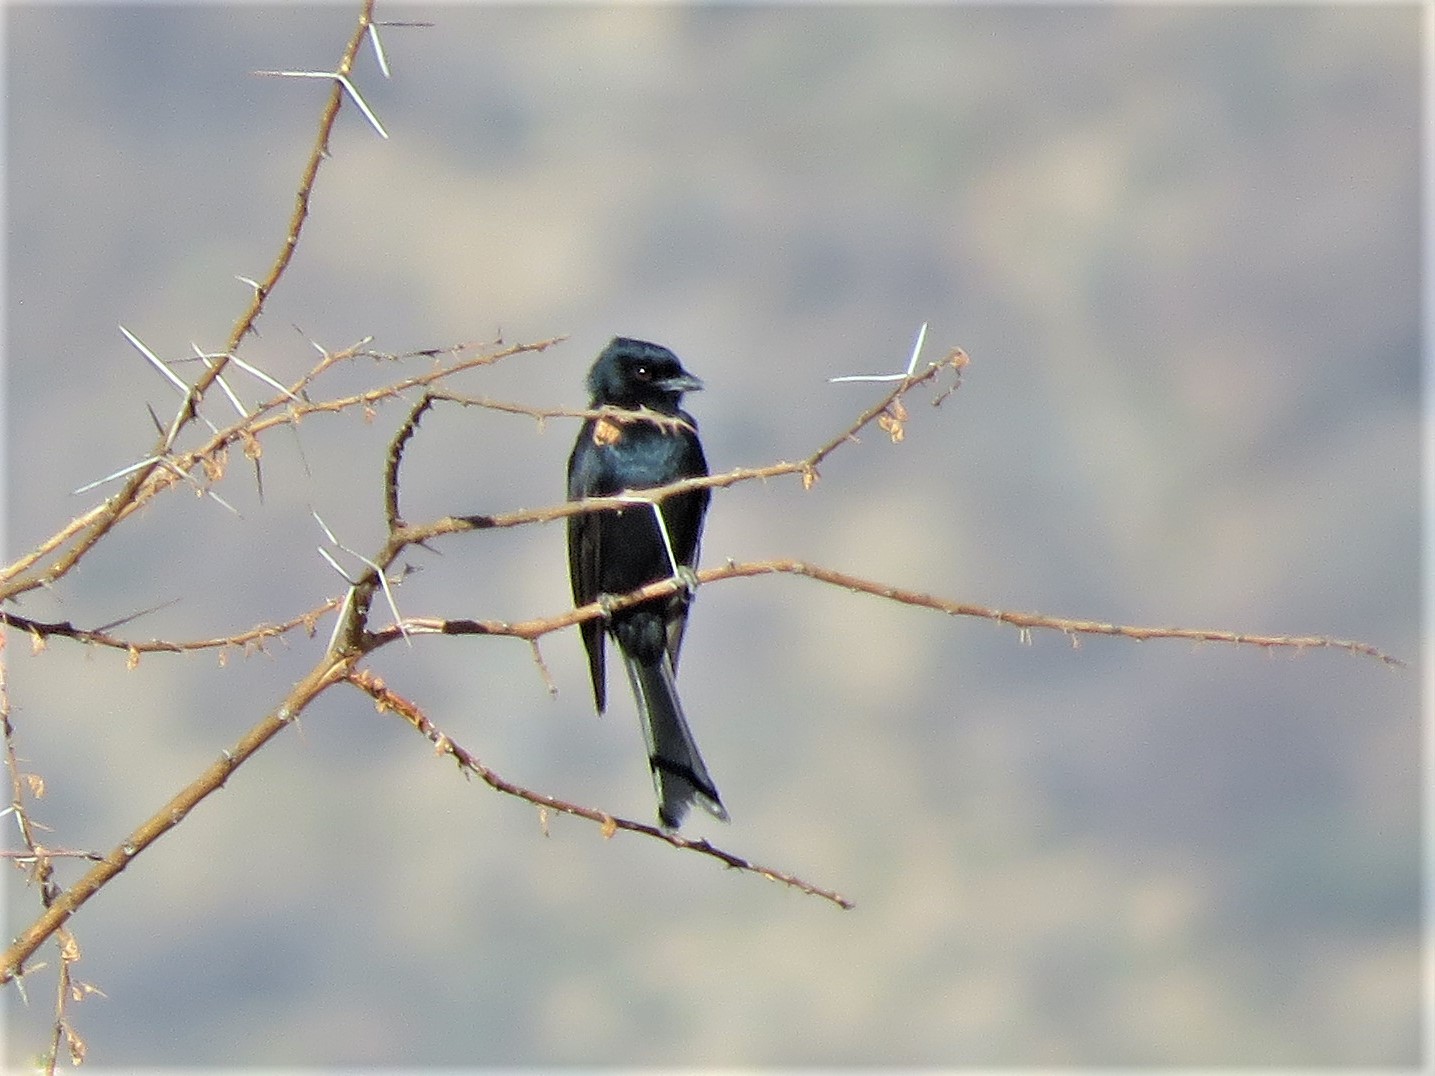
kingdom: Animalia
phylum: Chordata
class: Aves
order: Passeriformes
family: Dicruridae
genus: Dicrurus
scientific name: Dicrurus adsimilis
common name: Fork-tailed drongo
